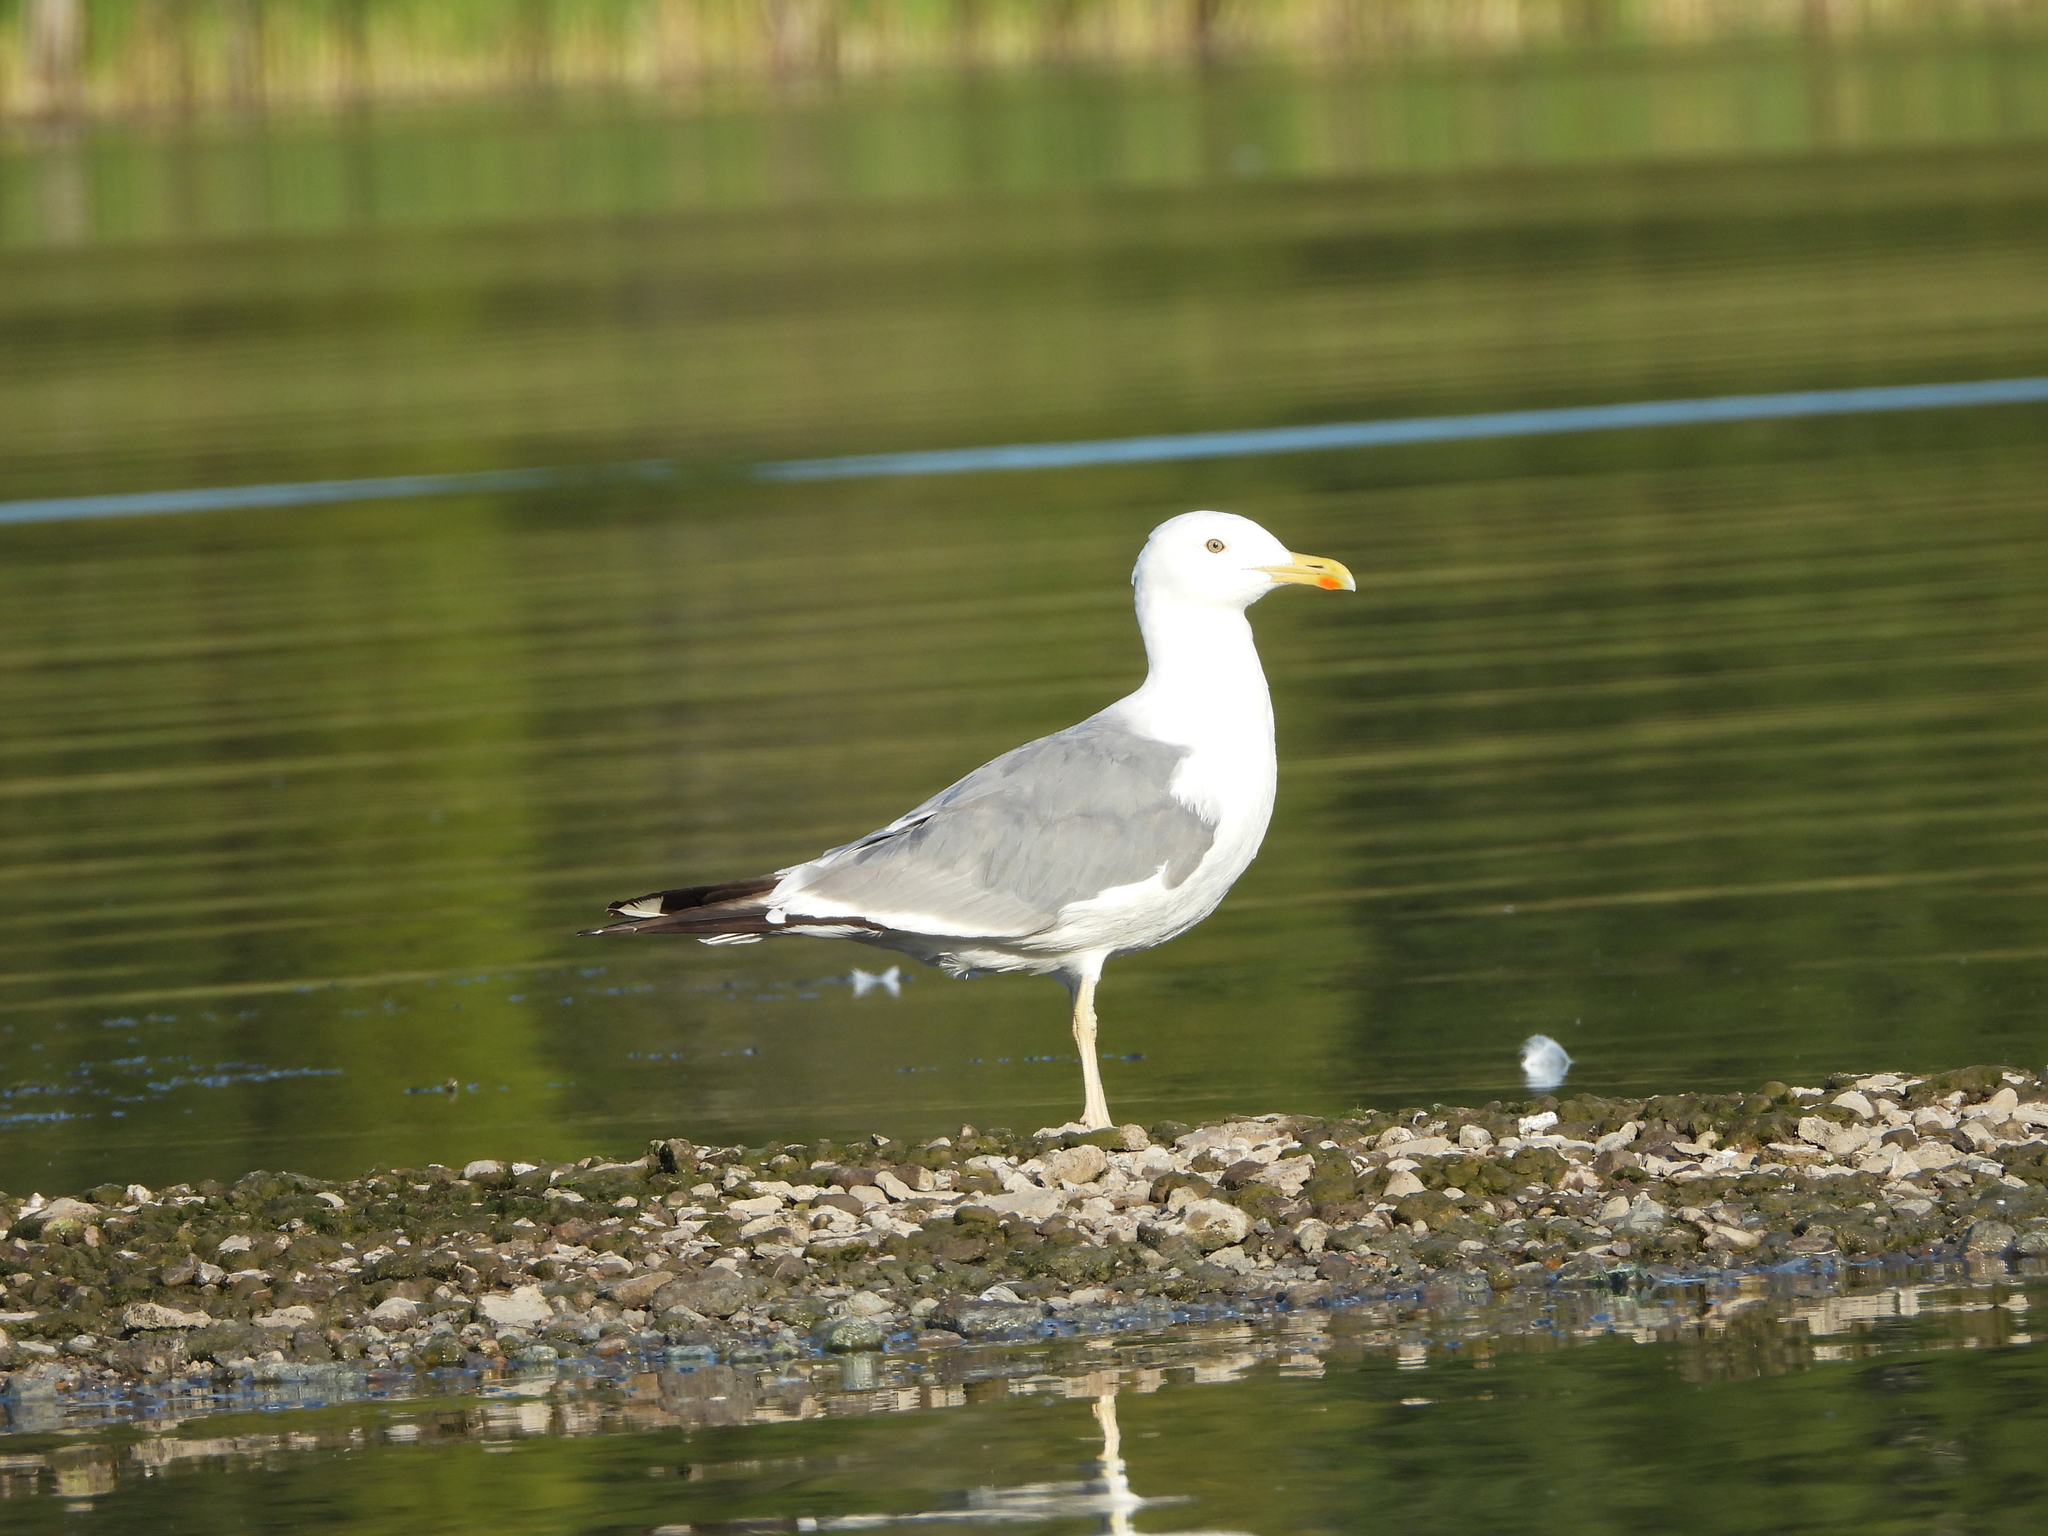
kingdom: Animalia
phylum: Chordata
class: Aves
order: Charadriiformes
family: Laridae
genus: Larus
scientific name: Larus fuscus
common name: Lesser black-backed gull
